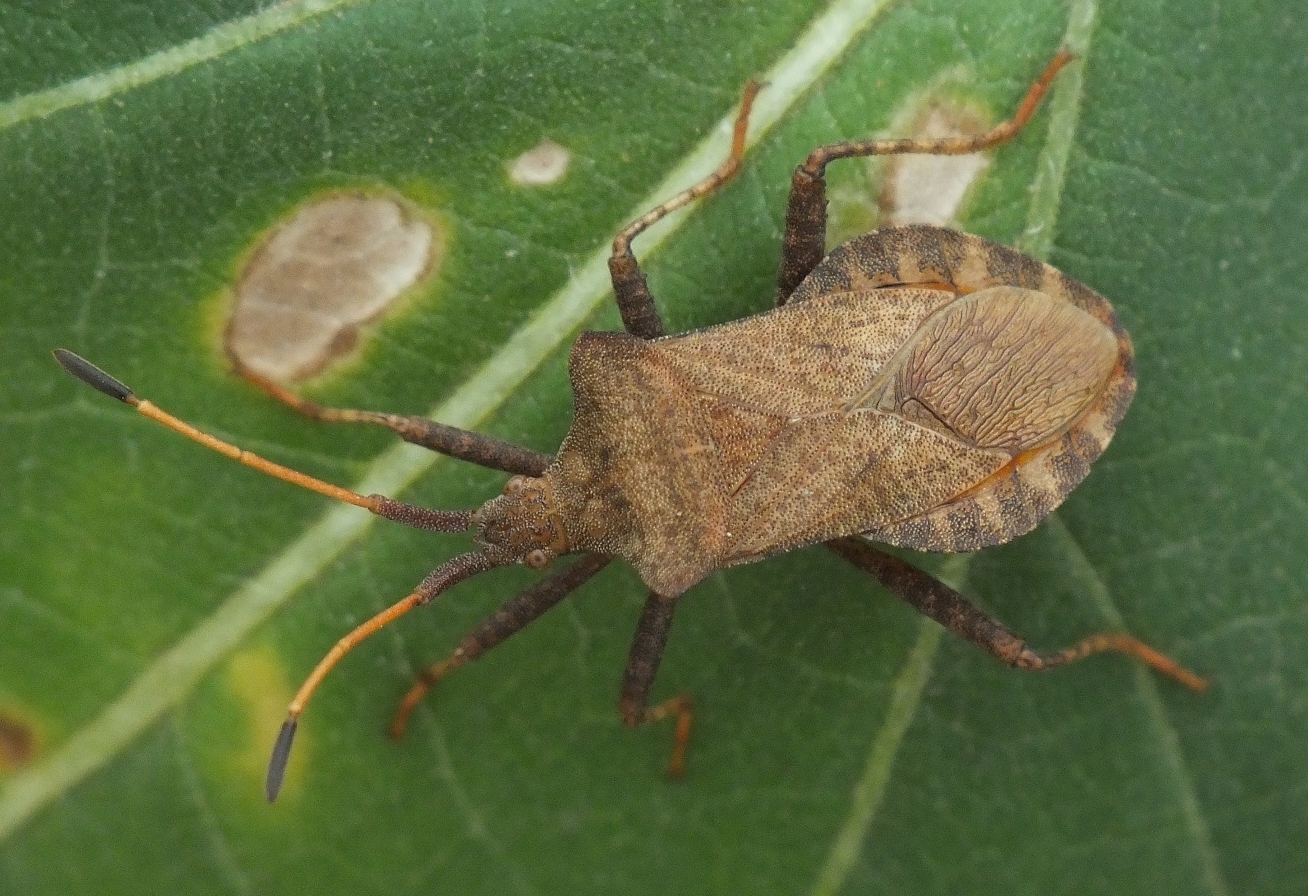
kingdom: Animalia
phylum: Arthropoda
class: Insecta
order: Hemiptera
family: Coreidae
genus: Coreus
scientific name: Coreus marginatus
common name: Dock bug
